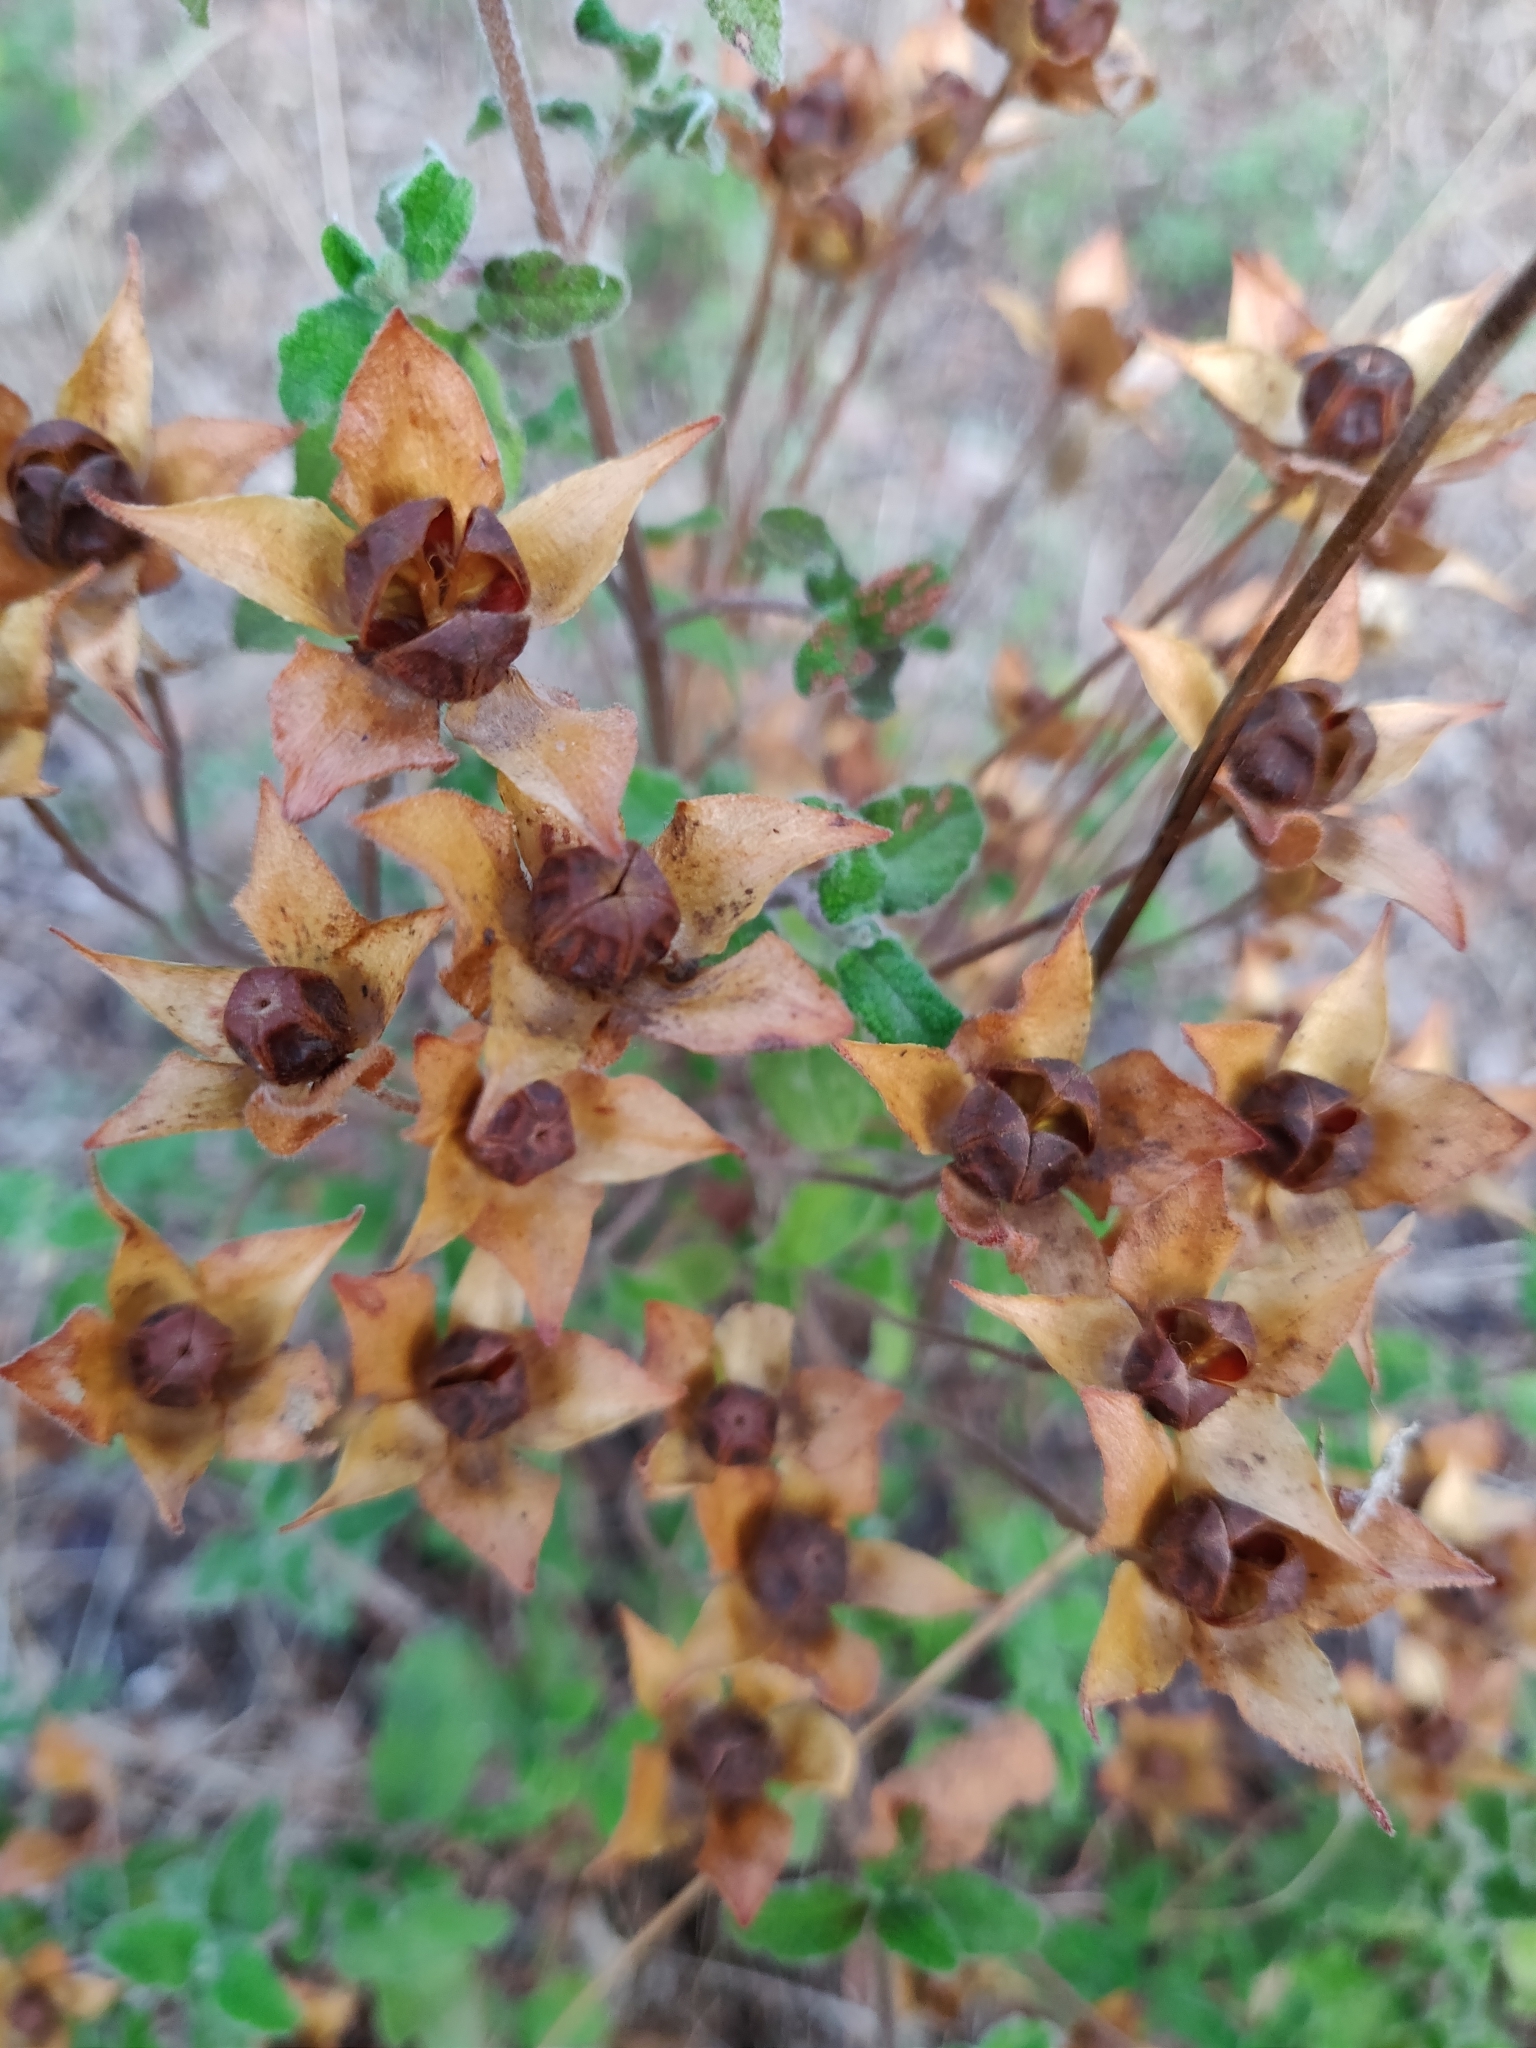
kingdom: Plantae
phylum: Tracheophyta
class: Magnoliopsida
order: Malvales
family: Cistaceae
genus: Cistus
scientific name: Cistus salviifolius
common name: Salvia cistus
